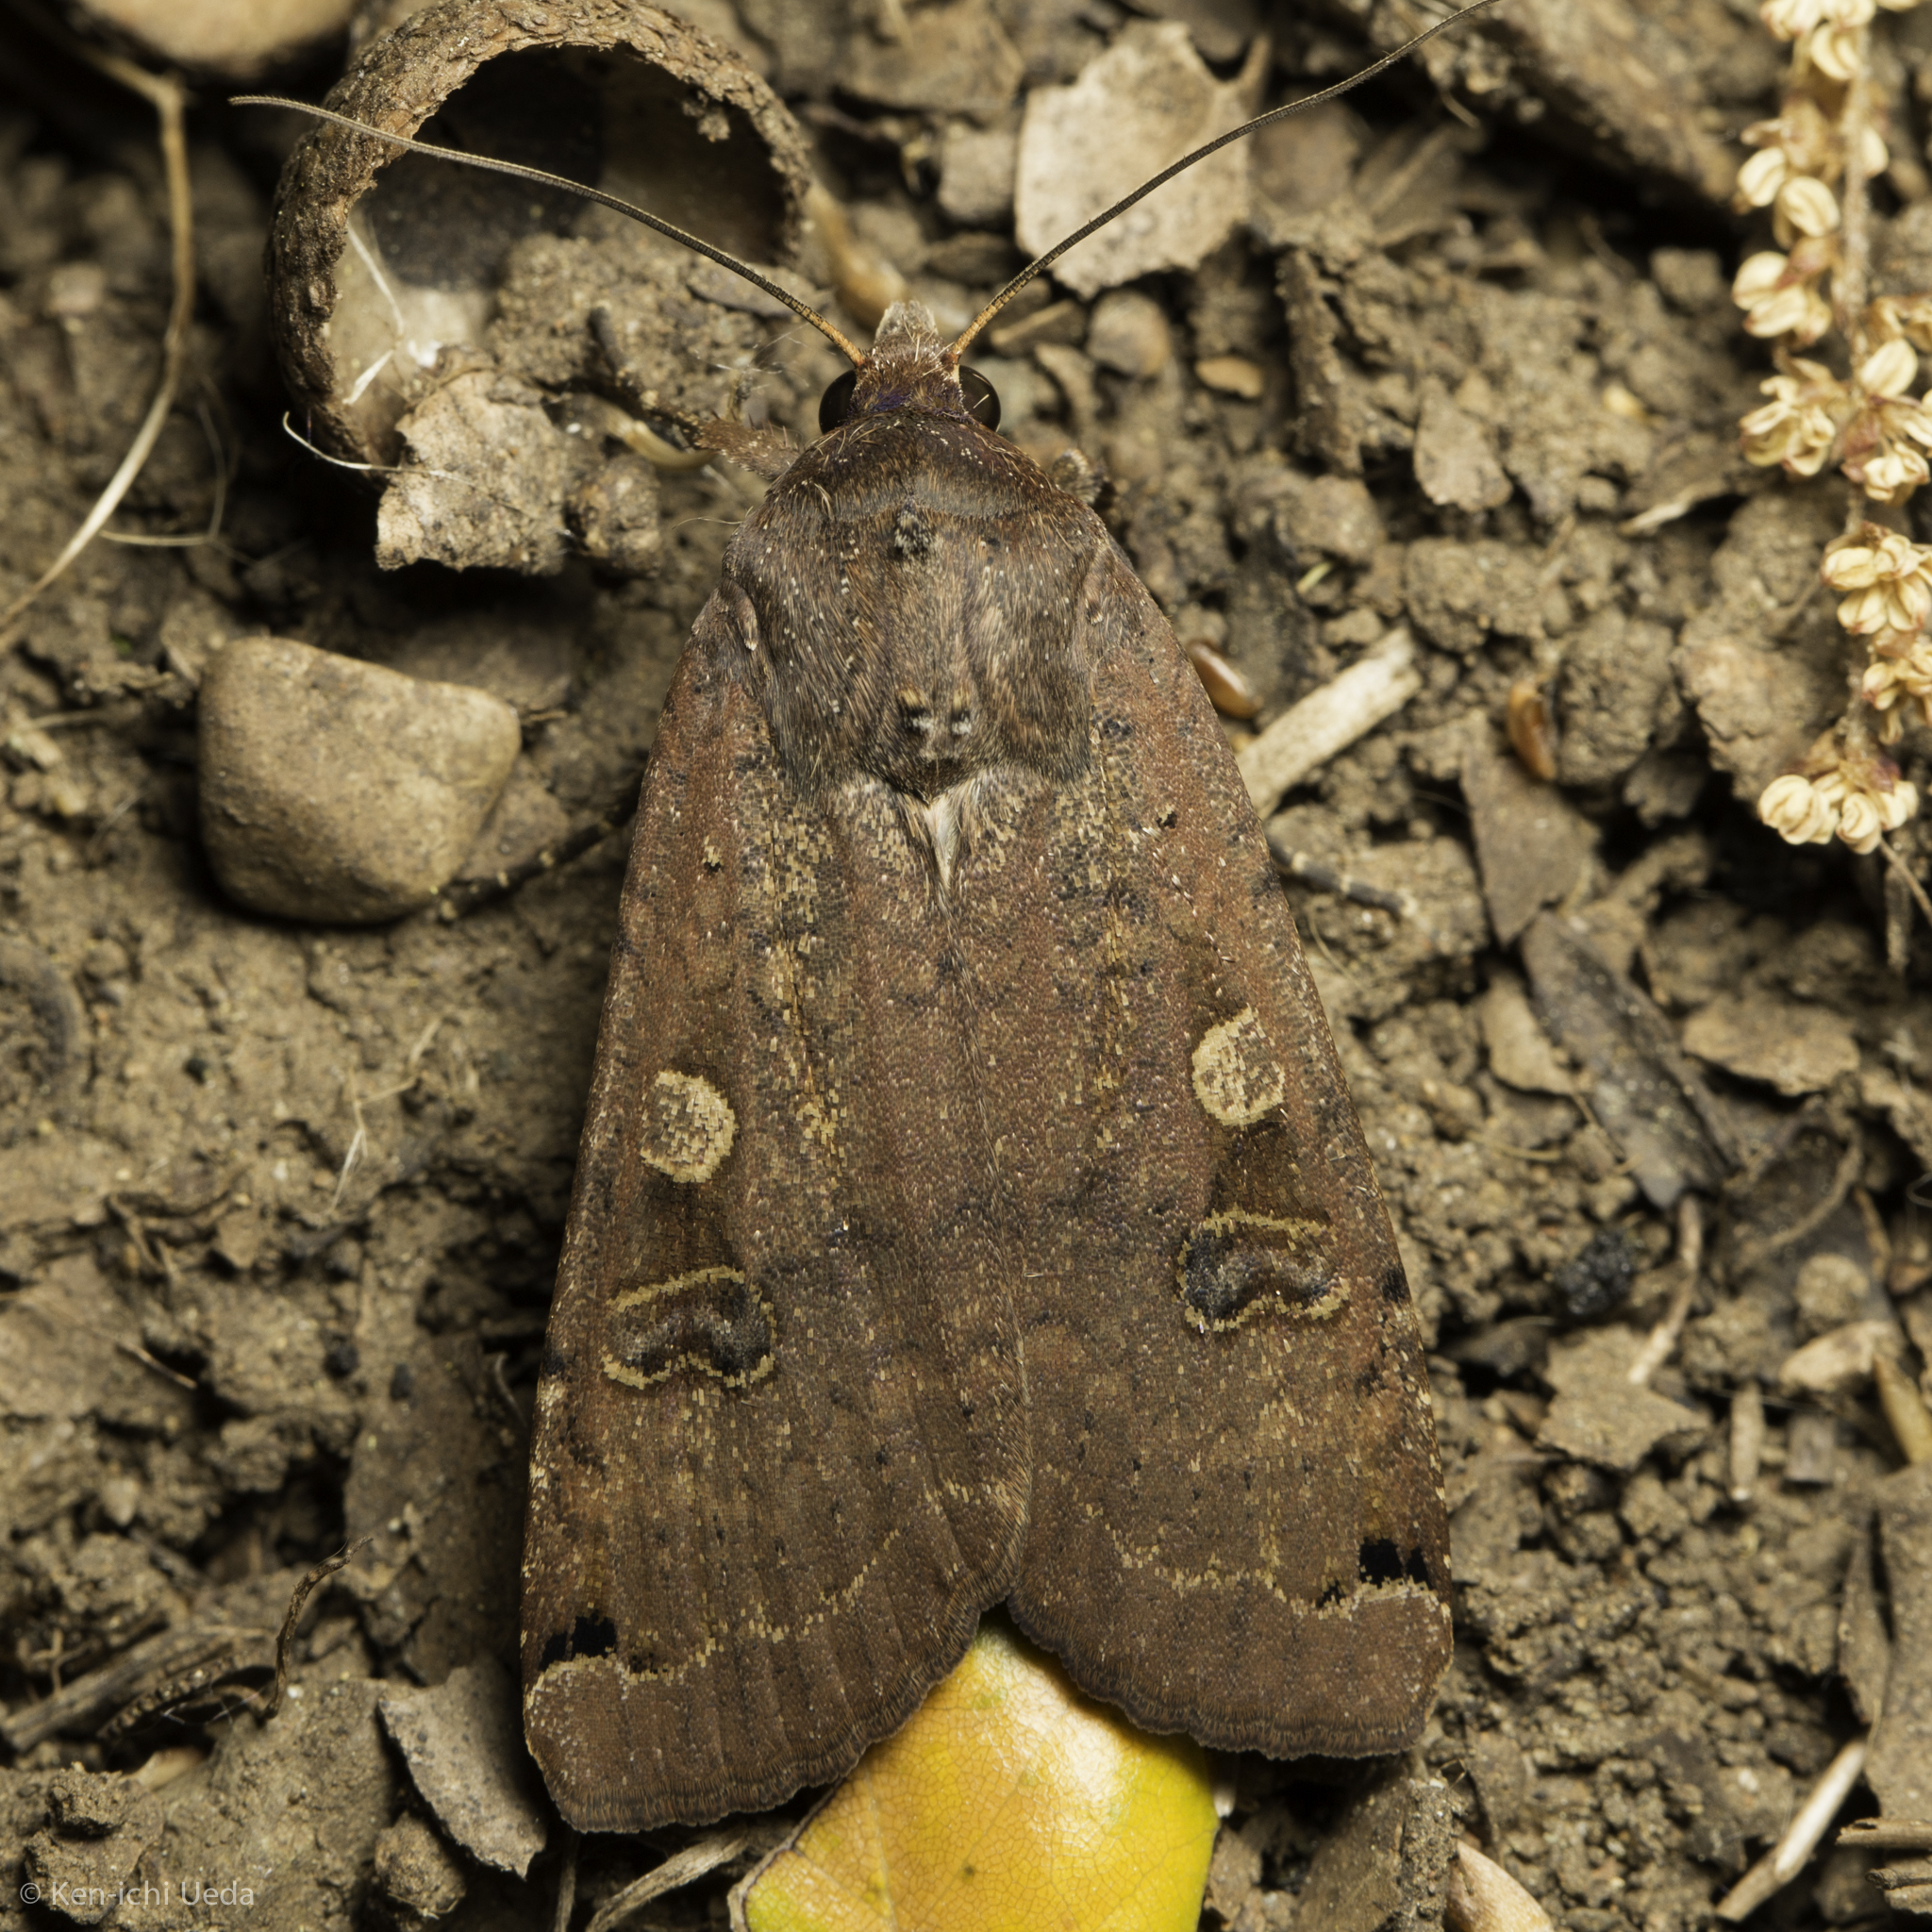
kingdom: Animalia
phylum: Arthropoda
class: Insecta
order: Lepidoptera
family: Noctuidae
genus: Noctua
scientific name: Noctua pronuba
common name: Large yellow underwing
